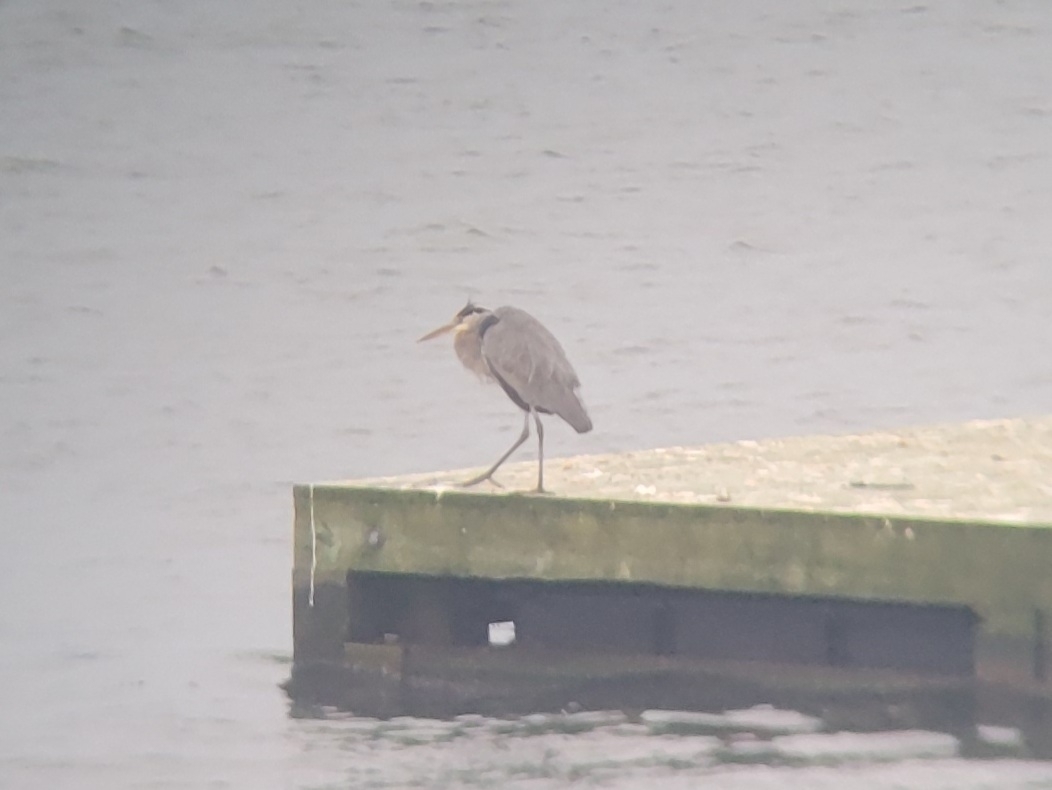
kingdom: Animalia
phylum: Chordata
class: Aves
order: Pelecaniformes
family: Ardeidae
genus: Ardea
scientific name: Ardea herodias
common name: Great blue heron
